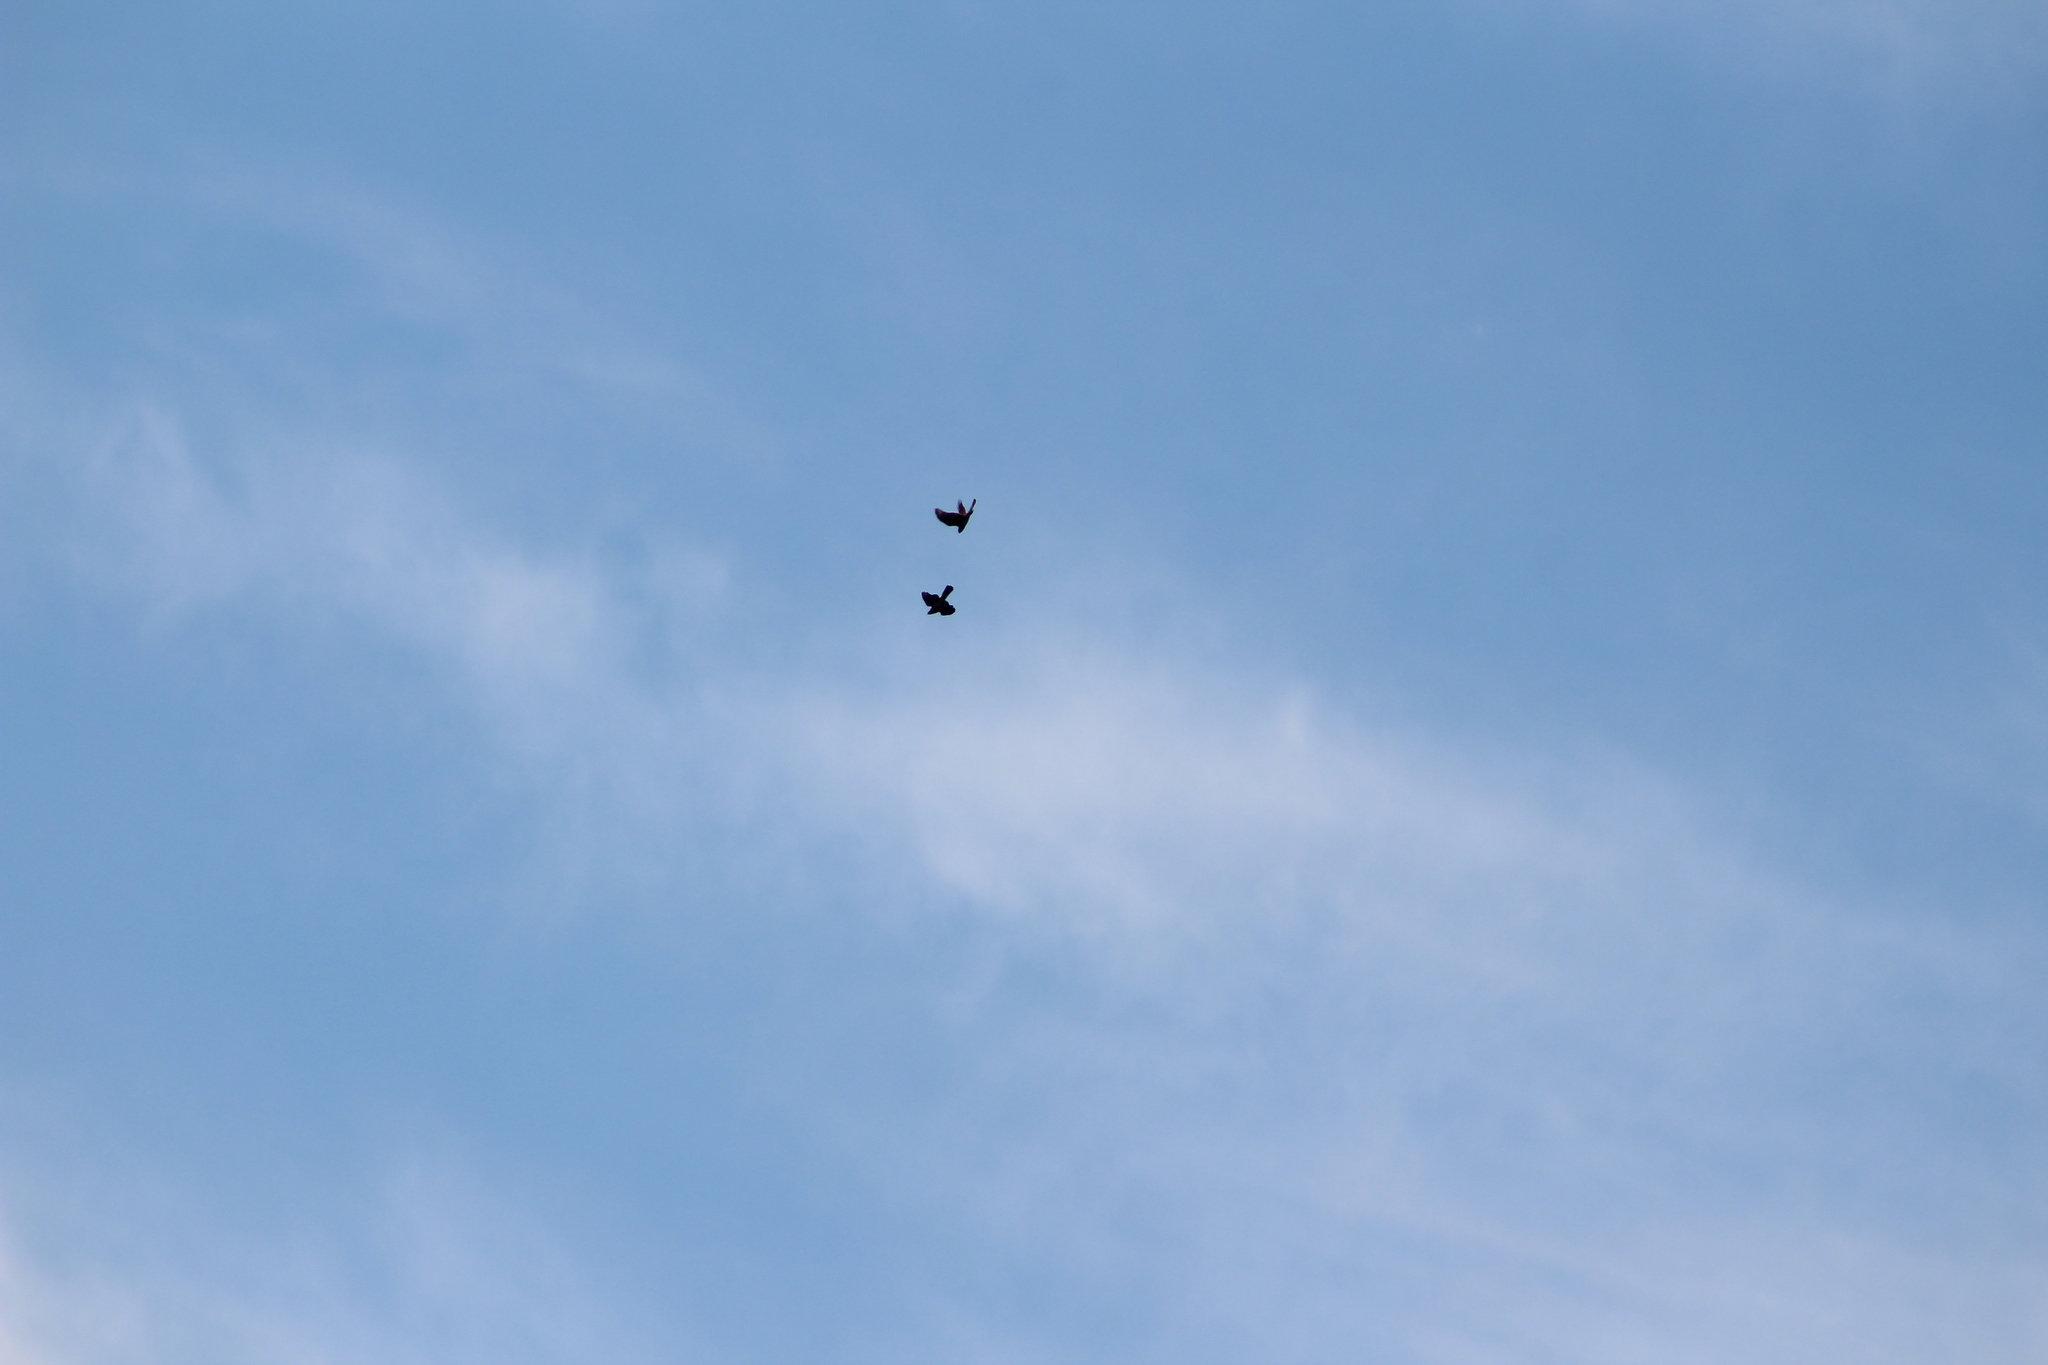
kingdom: Animalia
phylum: Chordata
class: Aves
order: Accipitriformes
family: Accipitridae
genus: Accipiter
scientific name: Accipiter cooperii
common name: Cooper's hawk
